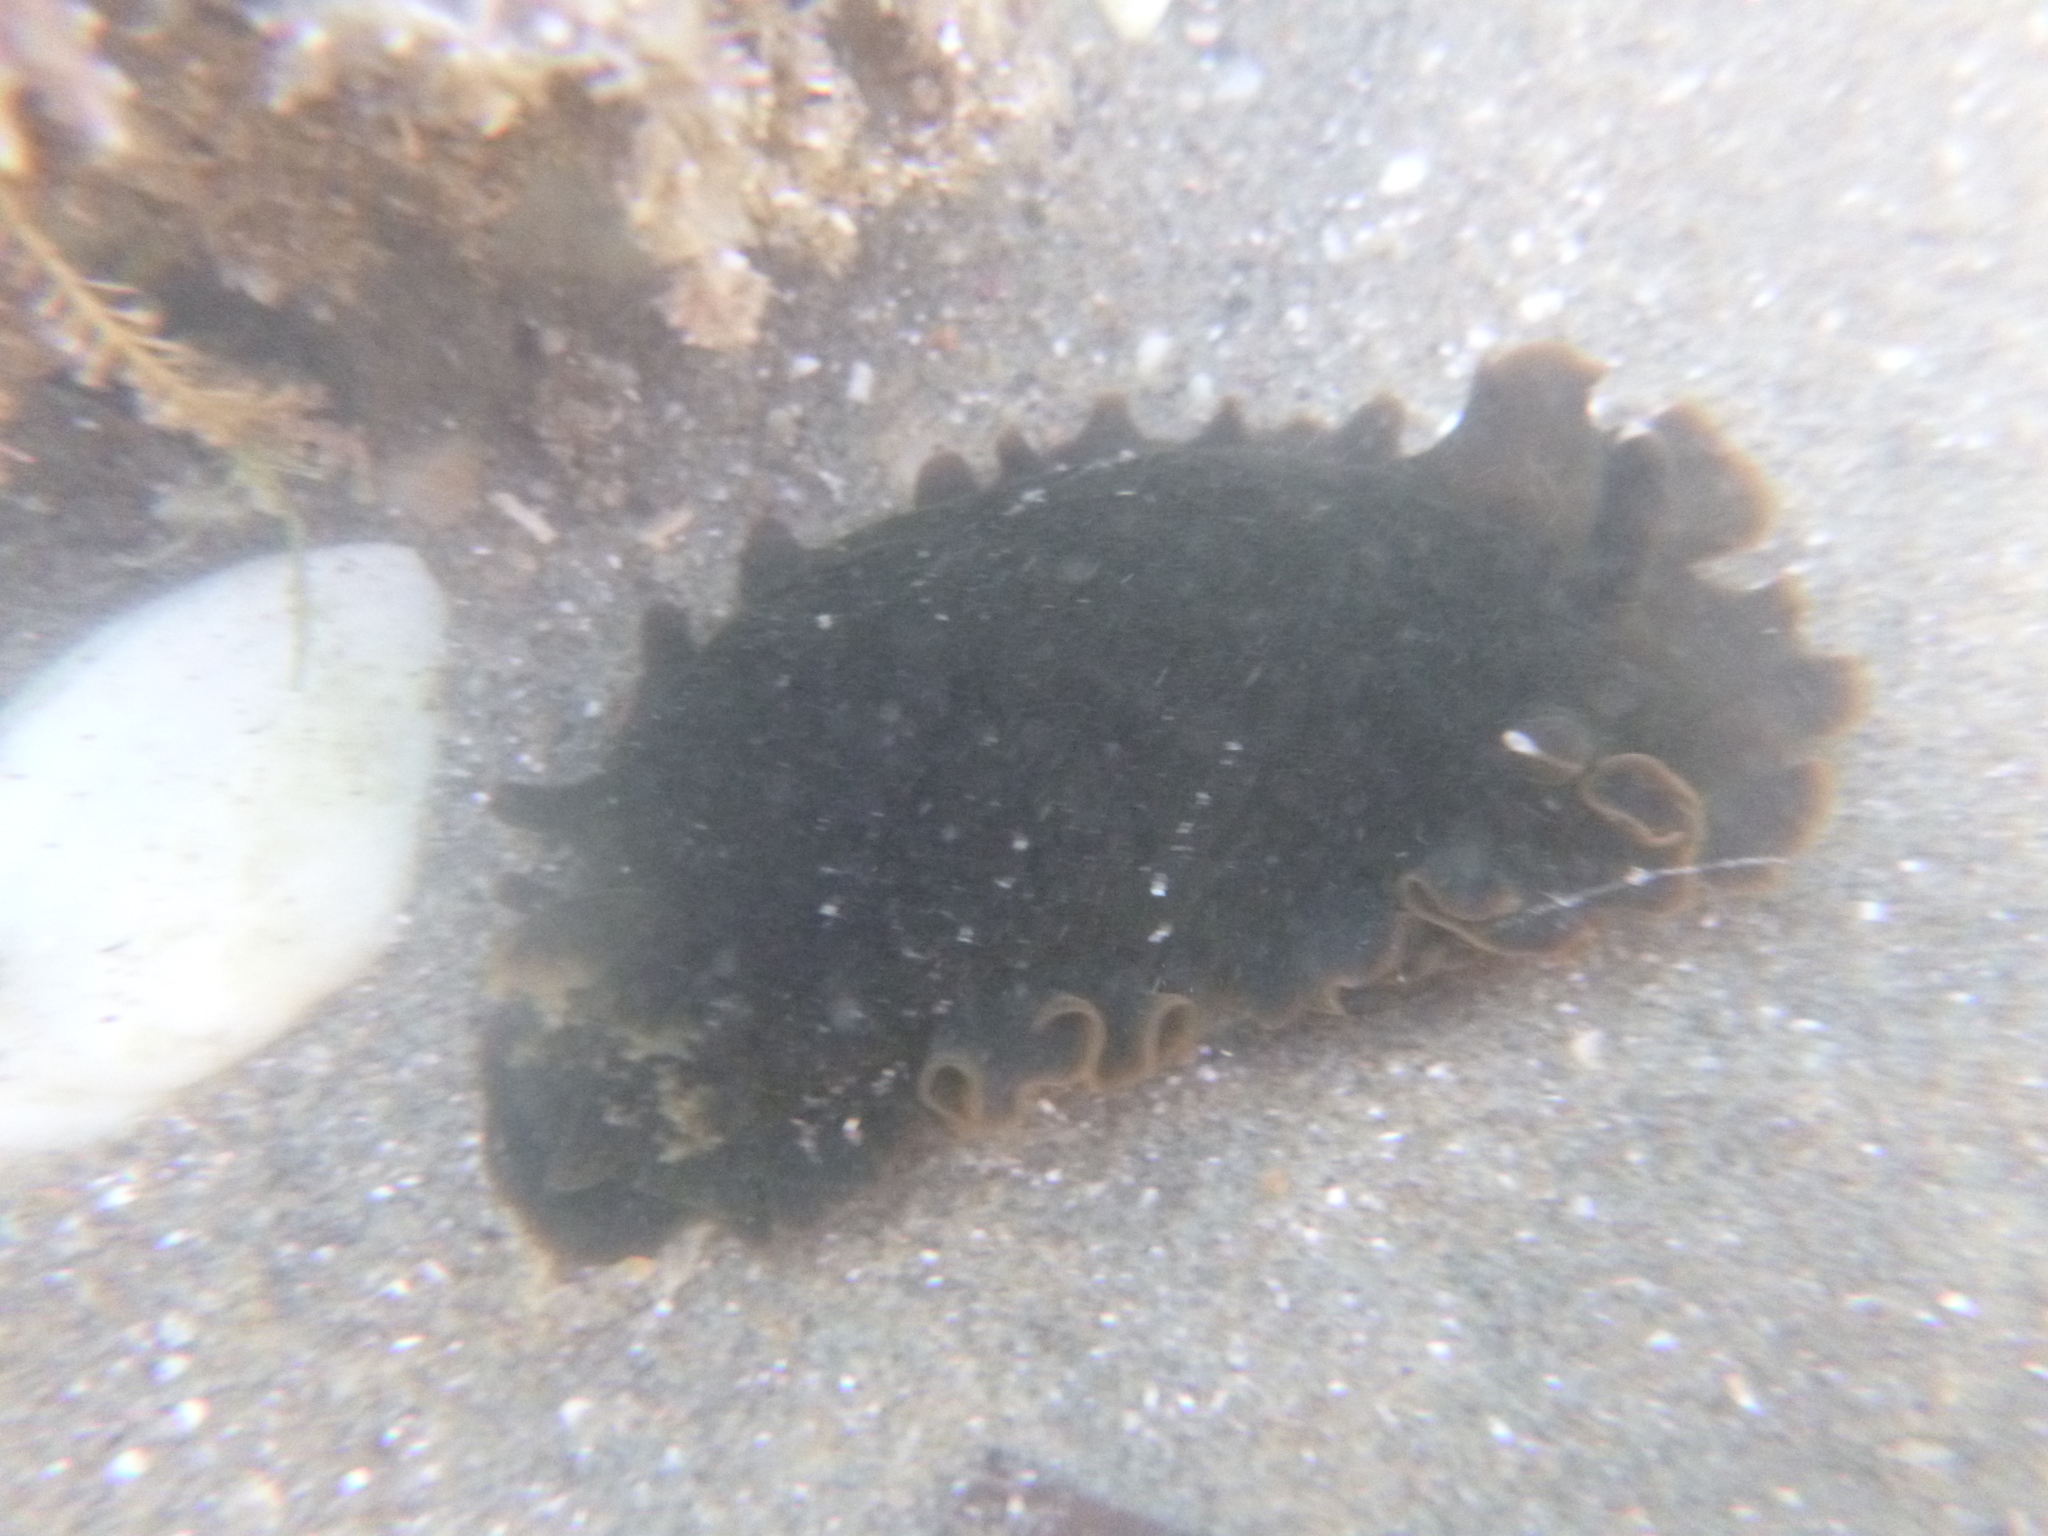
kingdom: Animalia
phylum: Mollusca
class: Gastropoda
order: Nudibranchia
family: Dendrodorididae
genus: Dendrodoris
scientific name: Dendrodoris nigra
